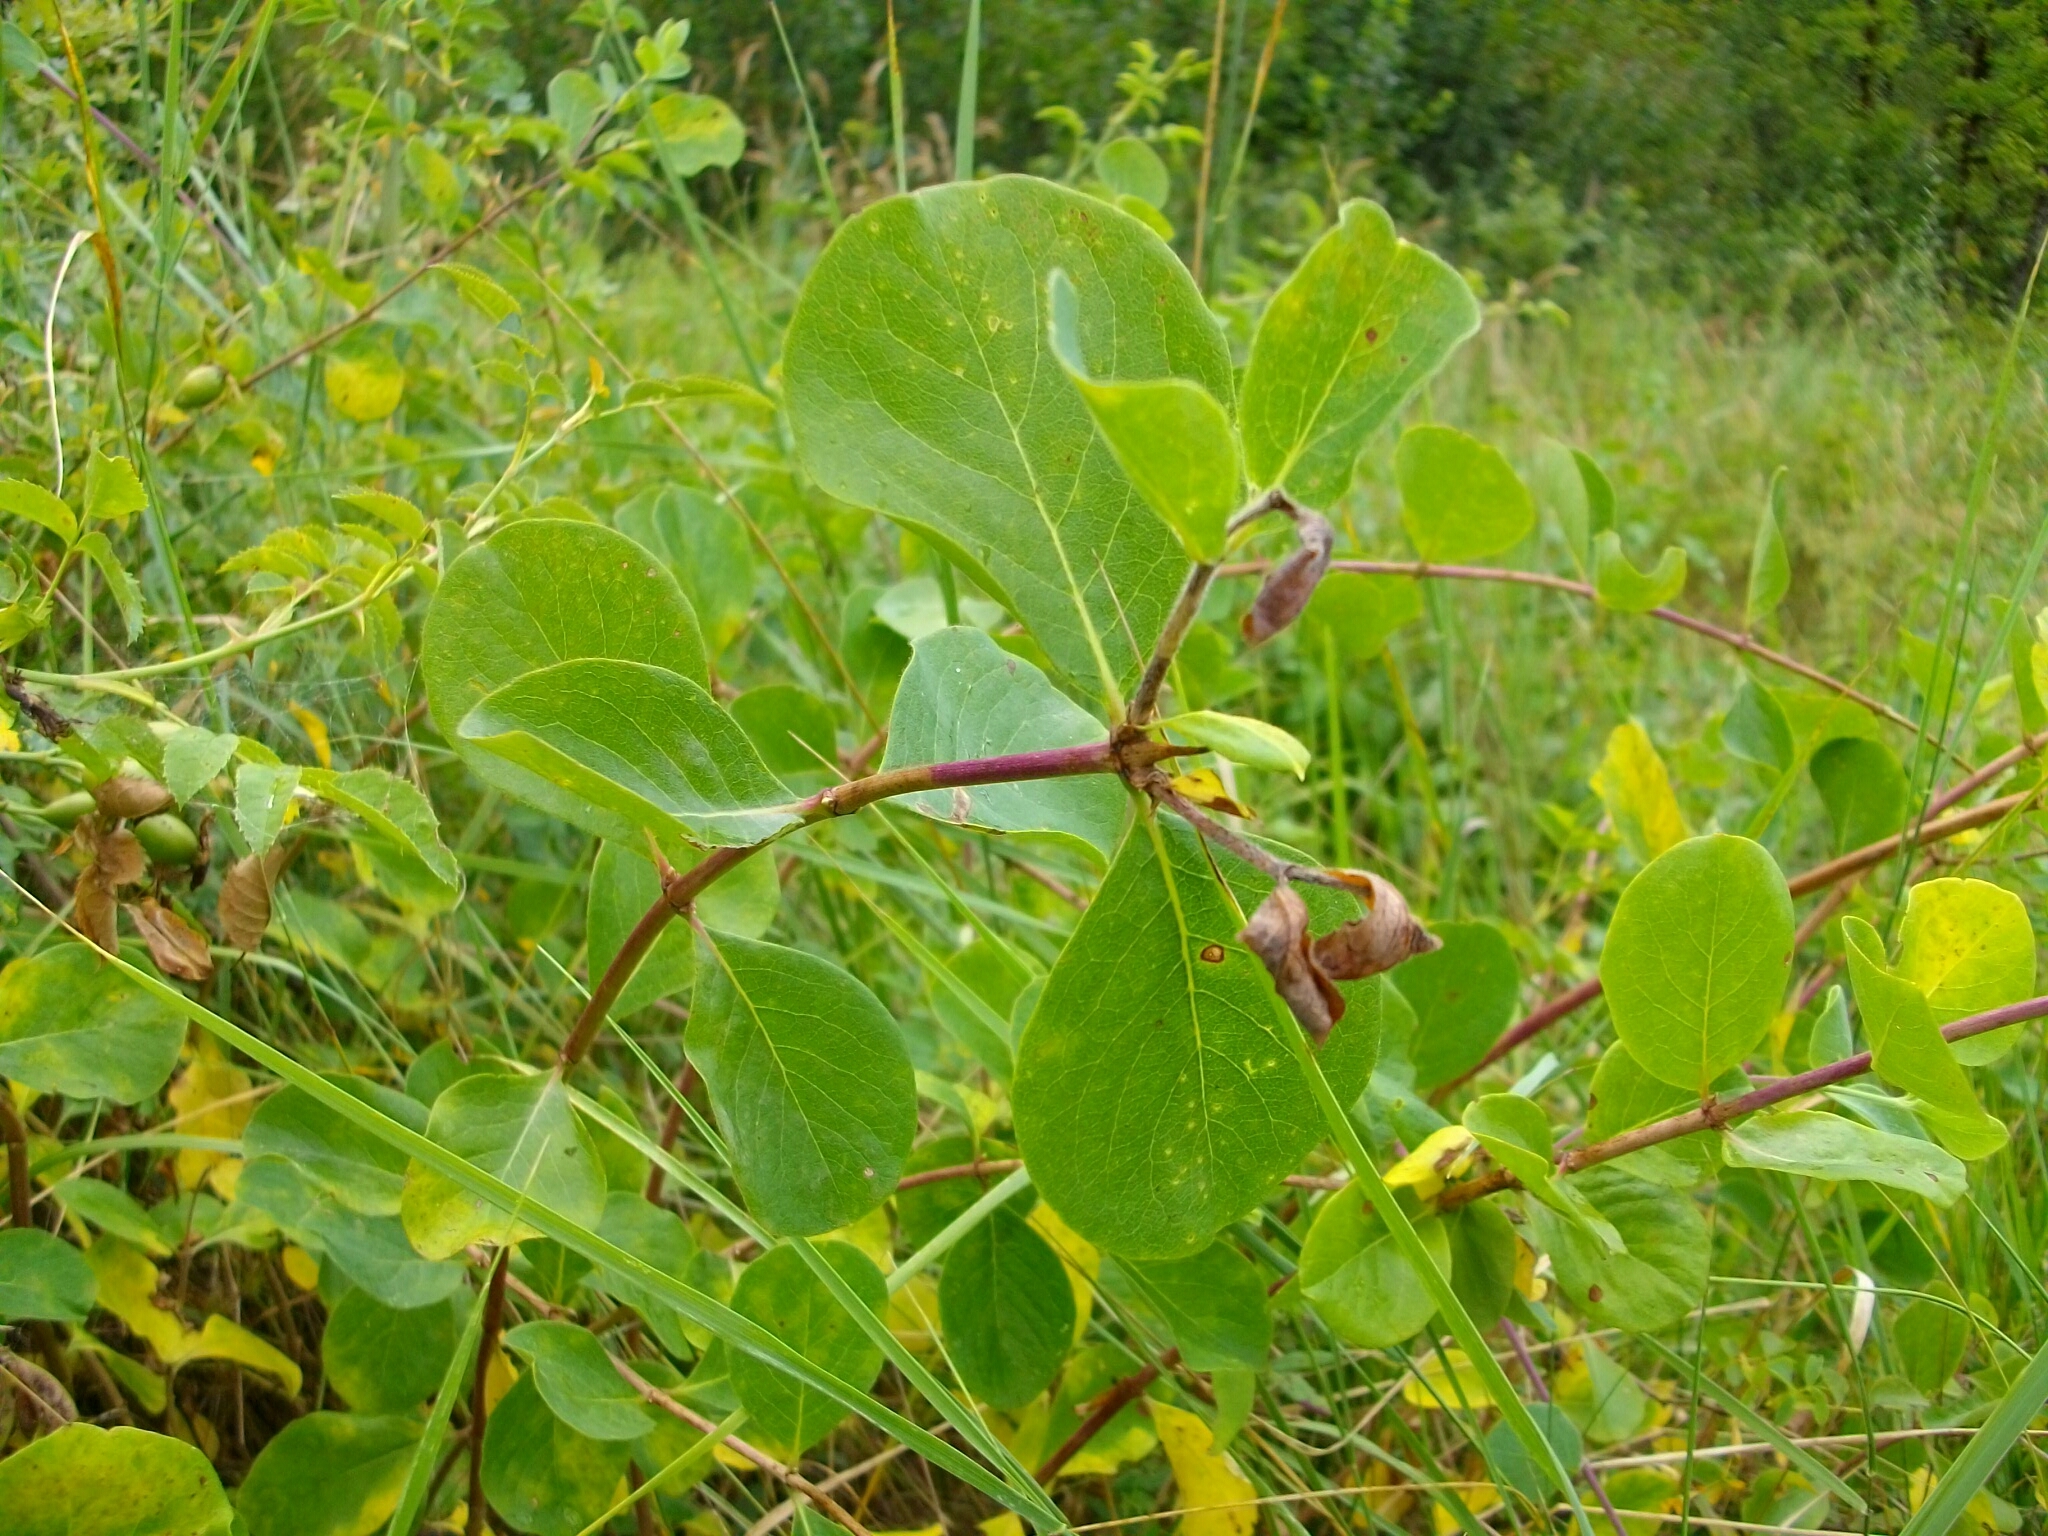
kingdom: Plantae
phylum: Tracheophyta
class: Magnoliopsida
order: Dipsacales
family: Caprifoliaceae
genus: Lonicera
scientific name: Lonicera etrusca
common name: Etruscan honeysuckle
